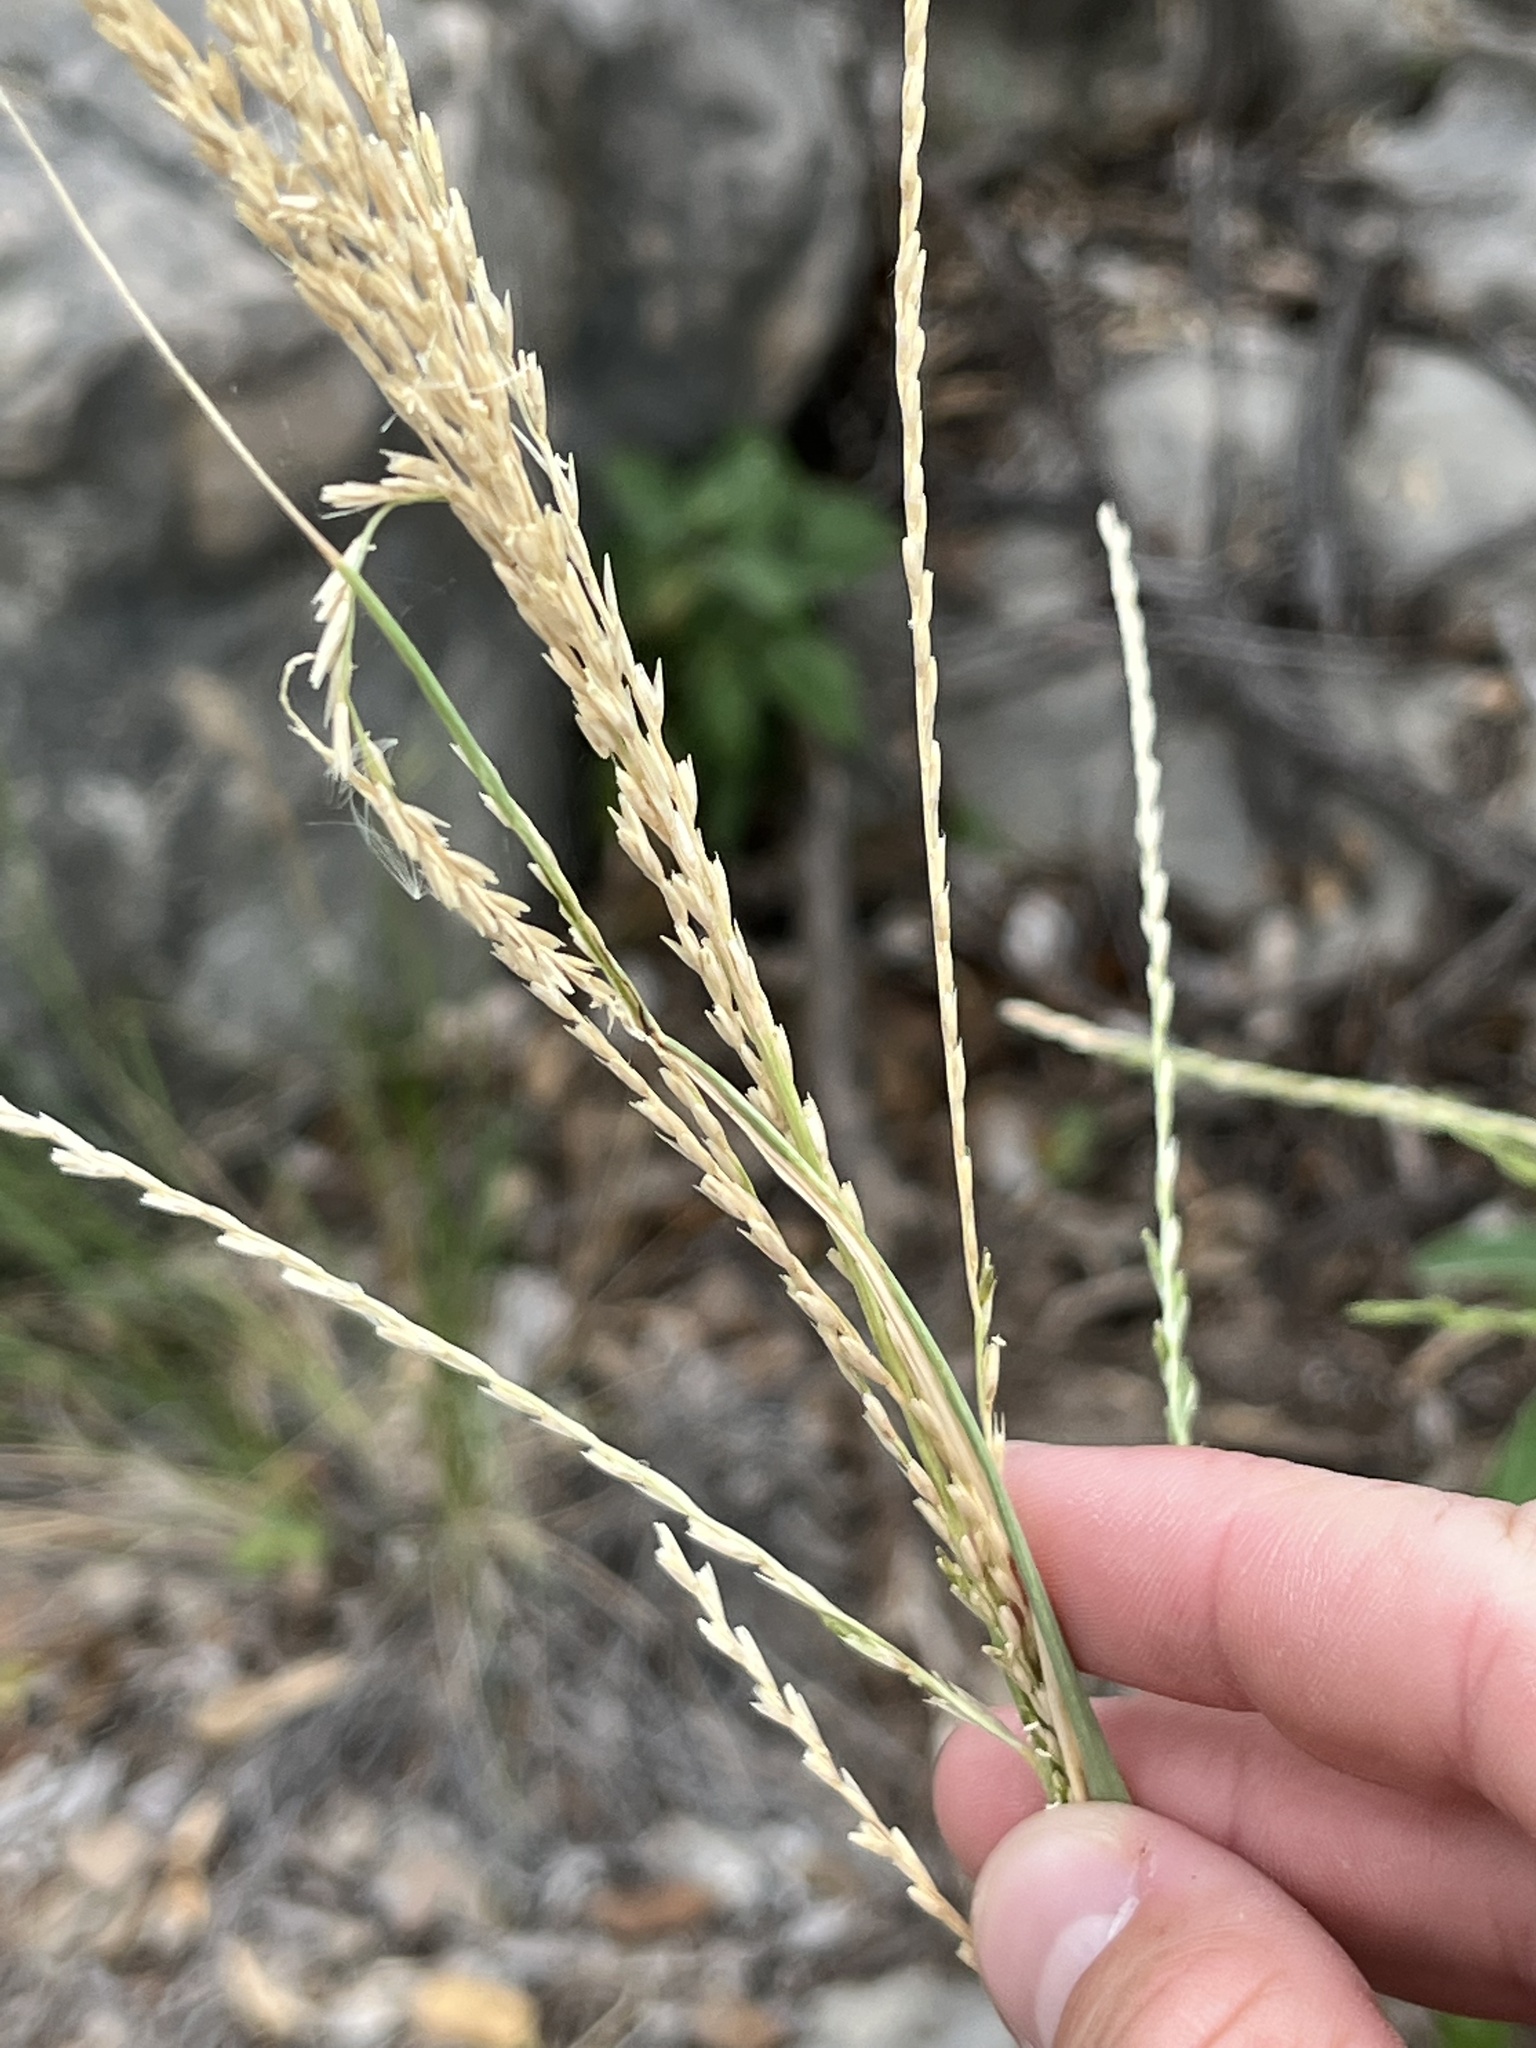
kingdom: Plantae
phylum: Tracheophyta
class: Liliopsida
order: Poales
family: Poaceae
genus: Disakisperma
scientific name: Disakisperma dubium
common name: Green sprangletop
